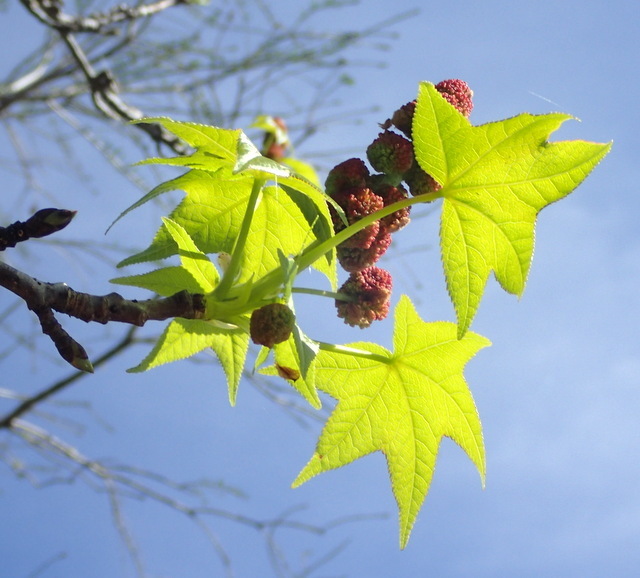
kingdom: Plantae
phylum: Tracheophyta
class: Magnoliopsida
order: Saxifragales
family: Altingiaceae
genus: Liquidambar
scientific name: Liquidambar styraciflua
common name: Sweet gum
